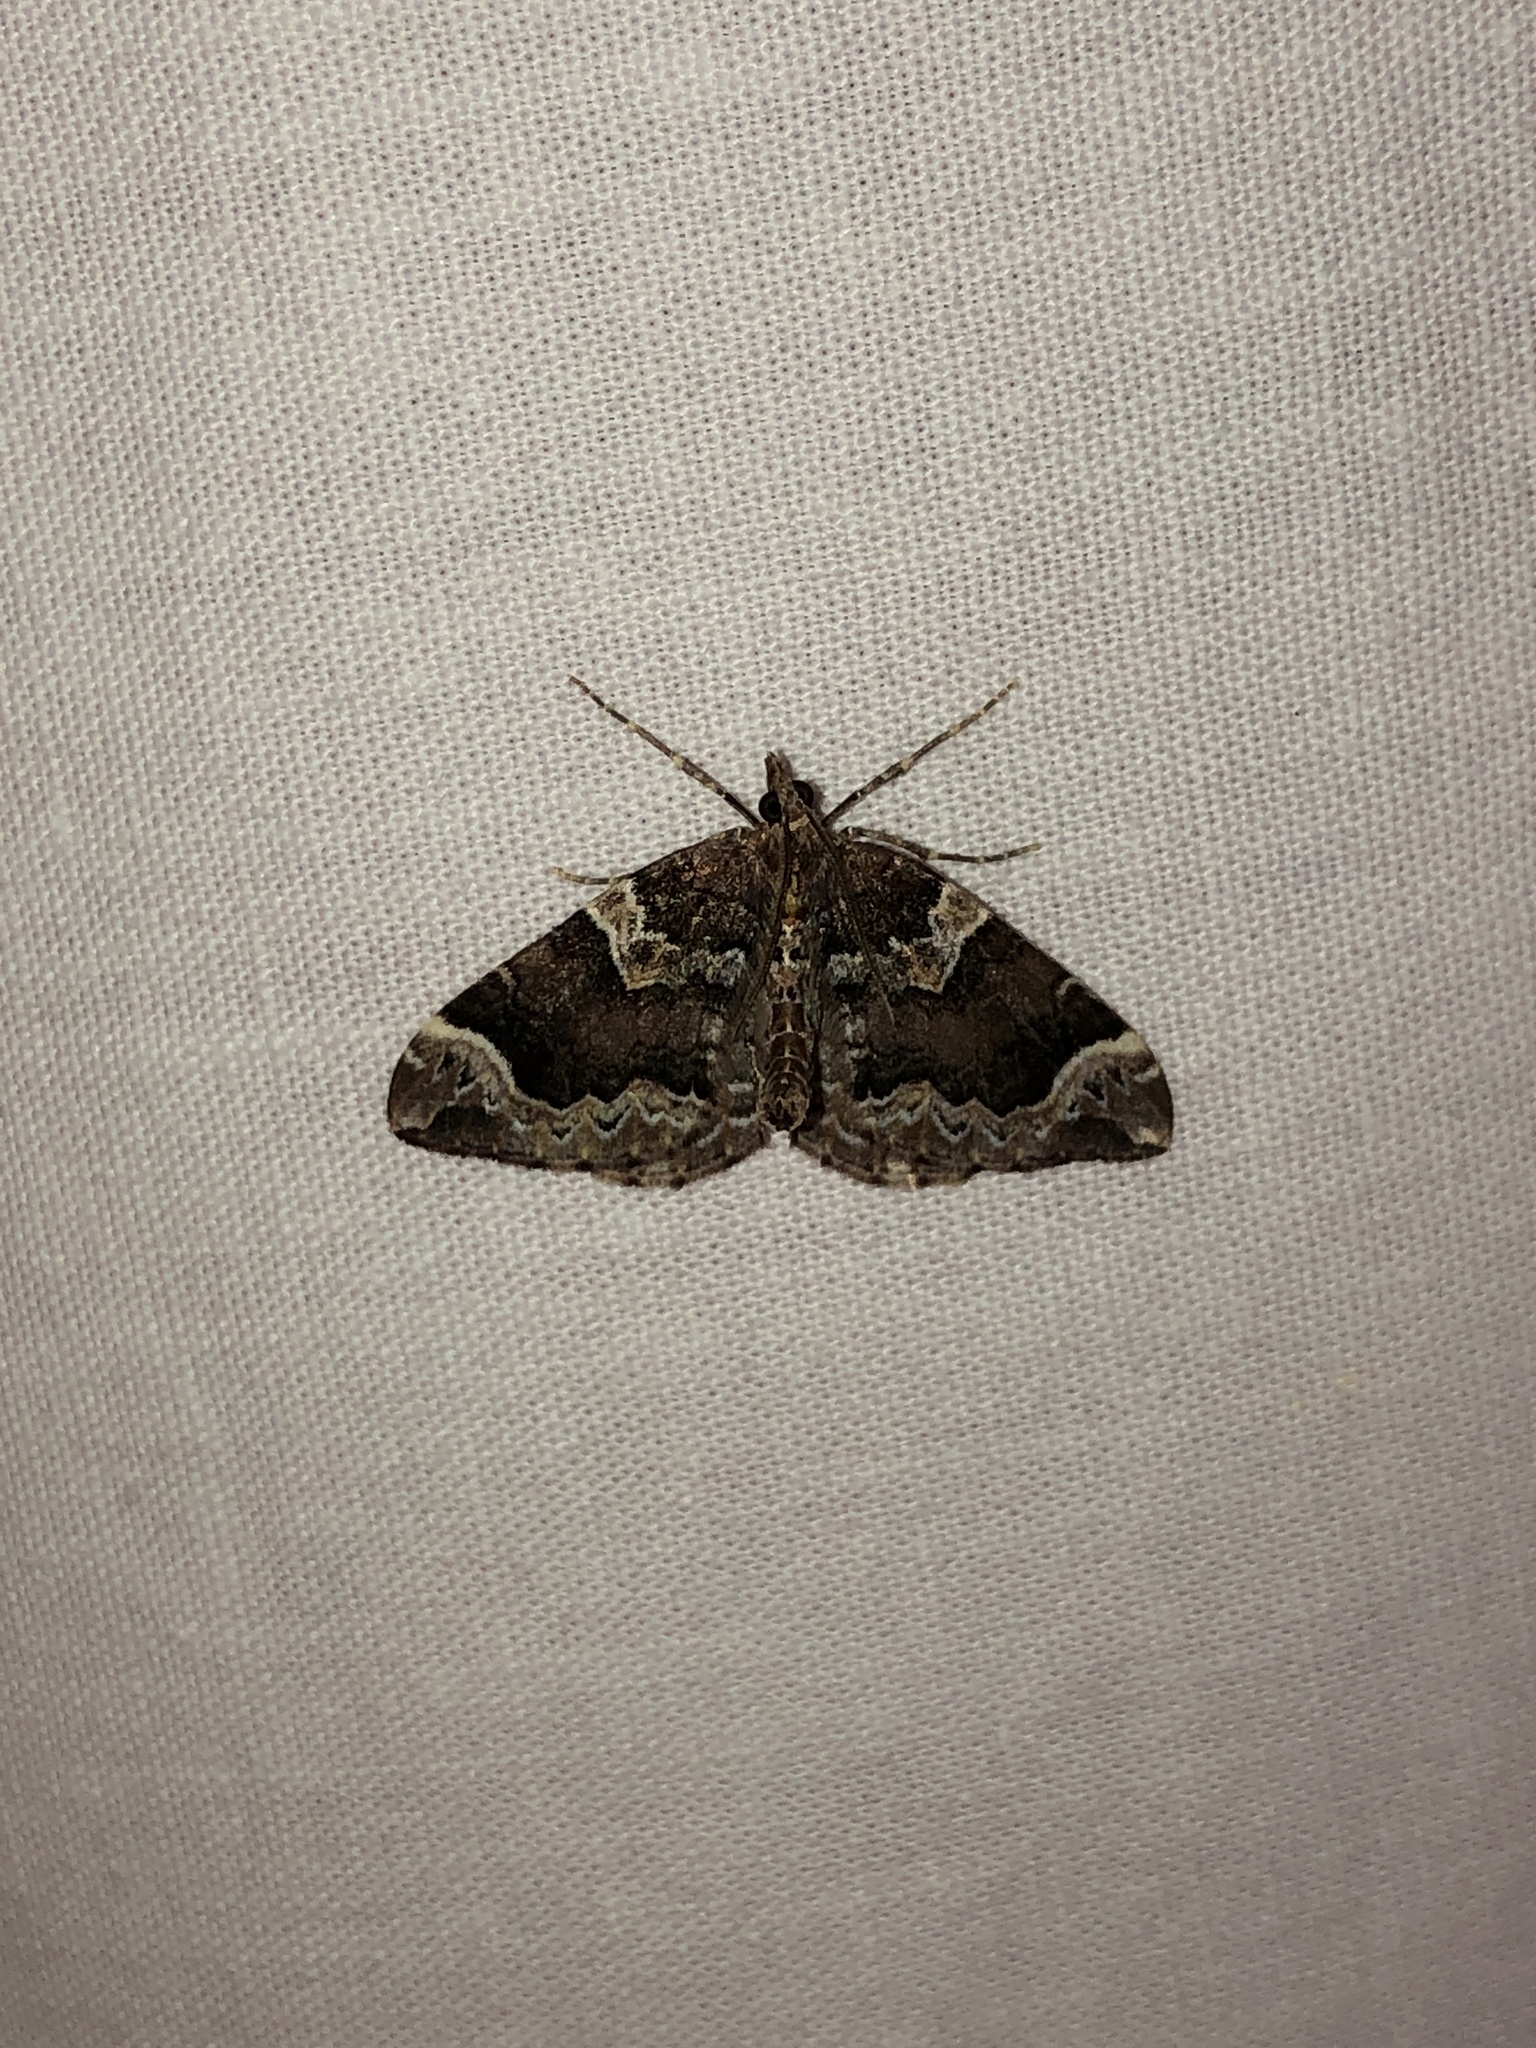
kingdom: Animalia
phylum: Arthropoda
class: Insecta
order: Lepidoptera
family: Geometridae
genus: Eulithis
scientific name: Eulithis xylina
